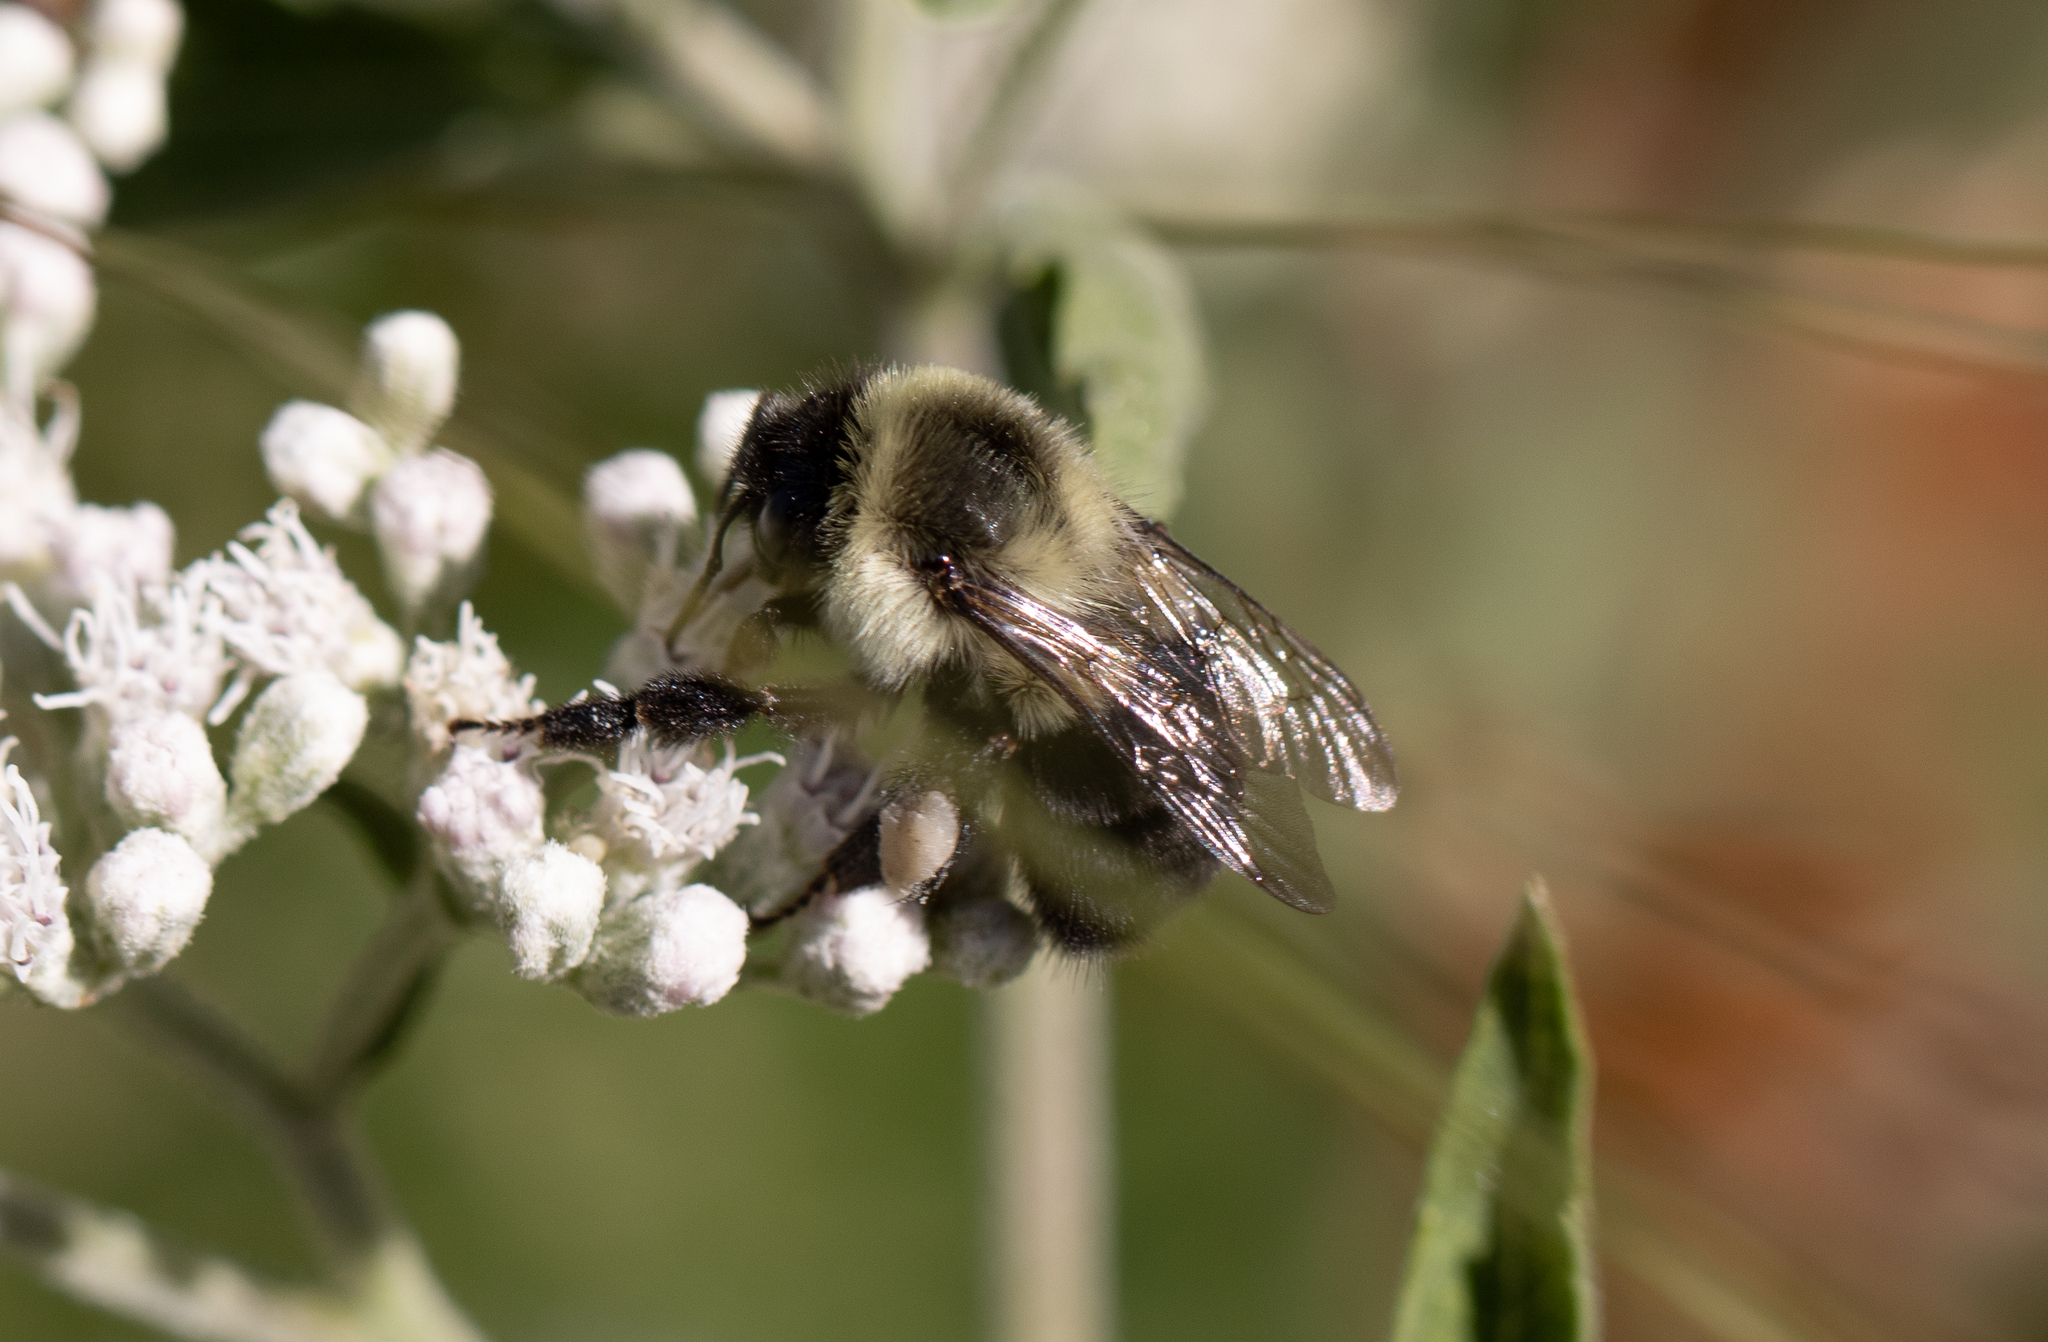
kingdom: Animalia
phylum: Arthropoda
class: Insecta
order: Hymenoptera
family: Apidae
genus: Bombus
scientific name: Bombus impatiens
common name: Common eastern bumble bee
